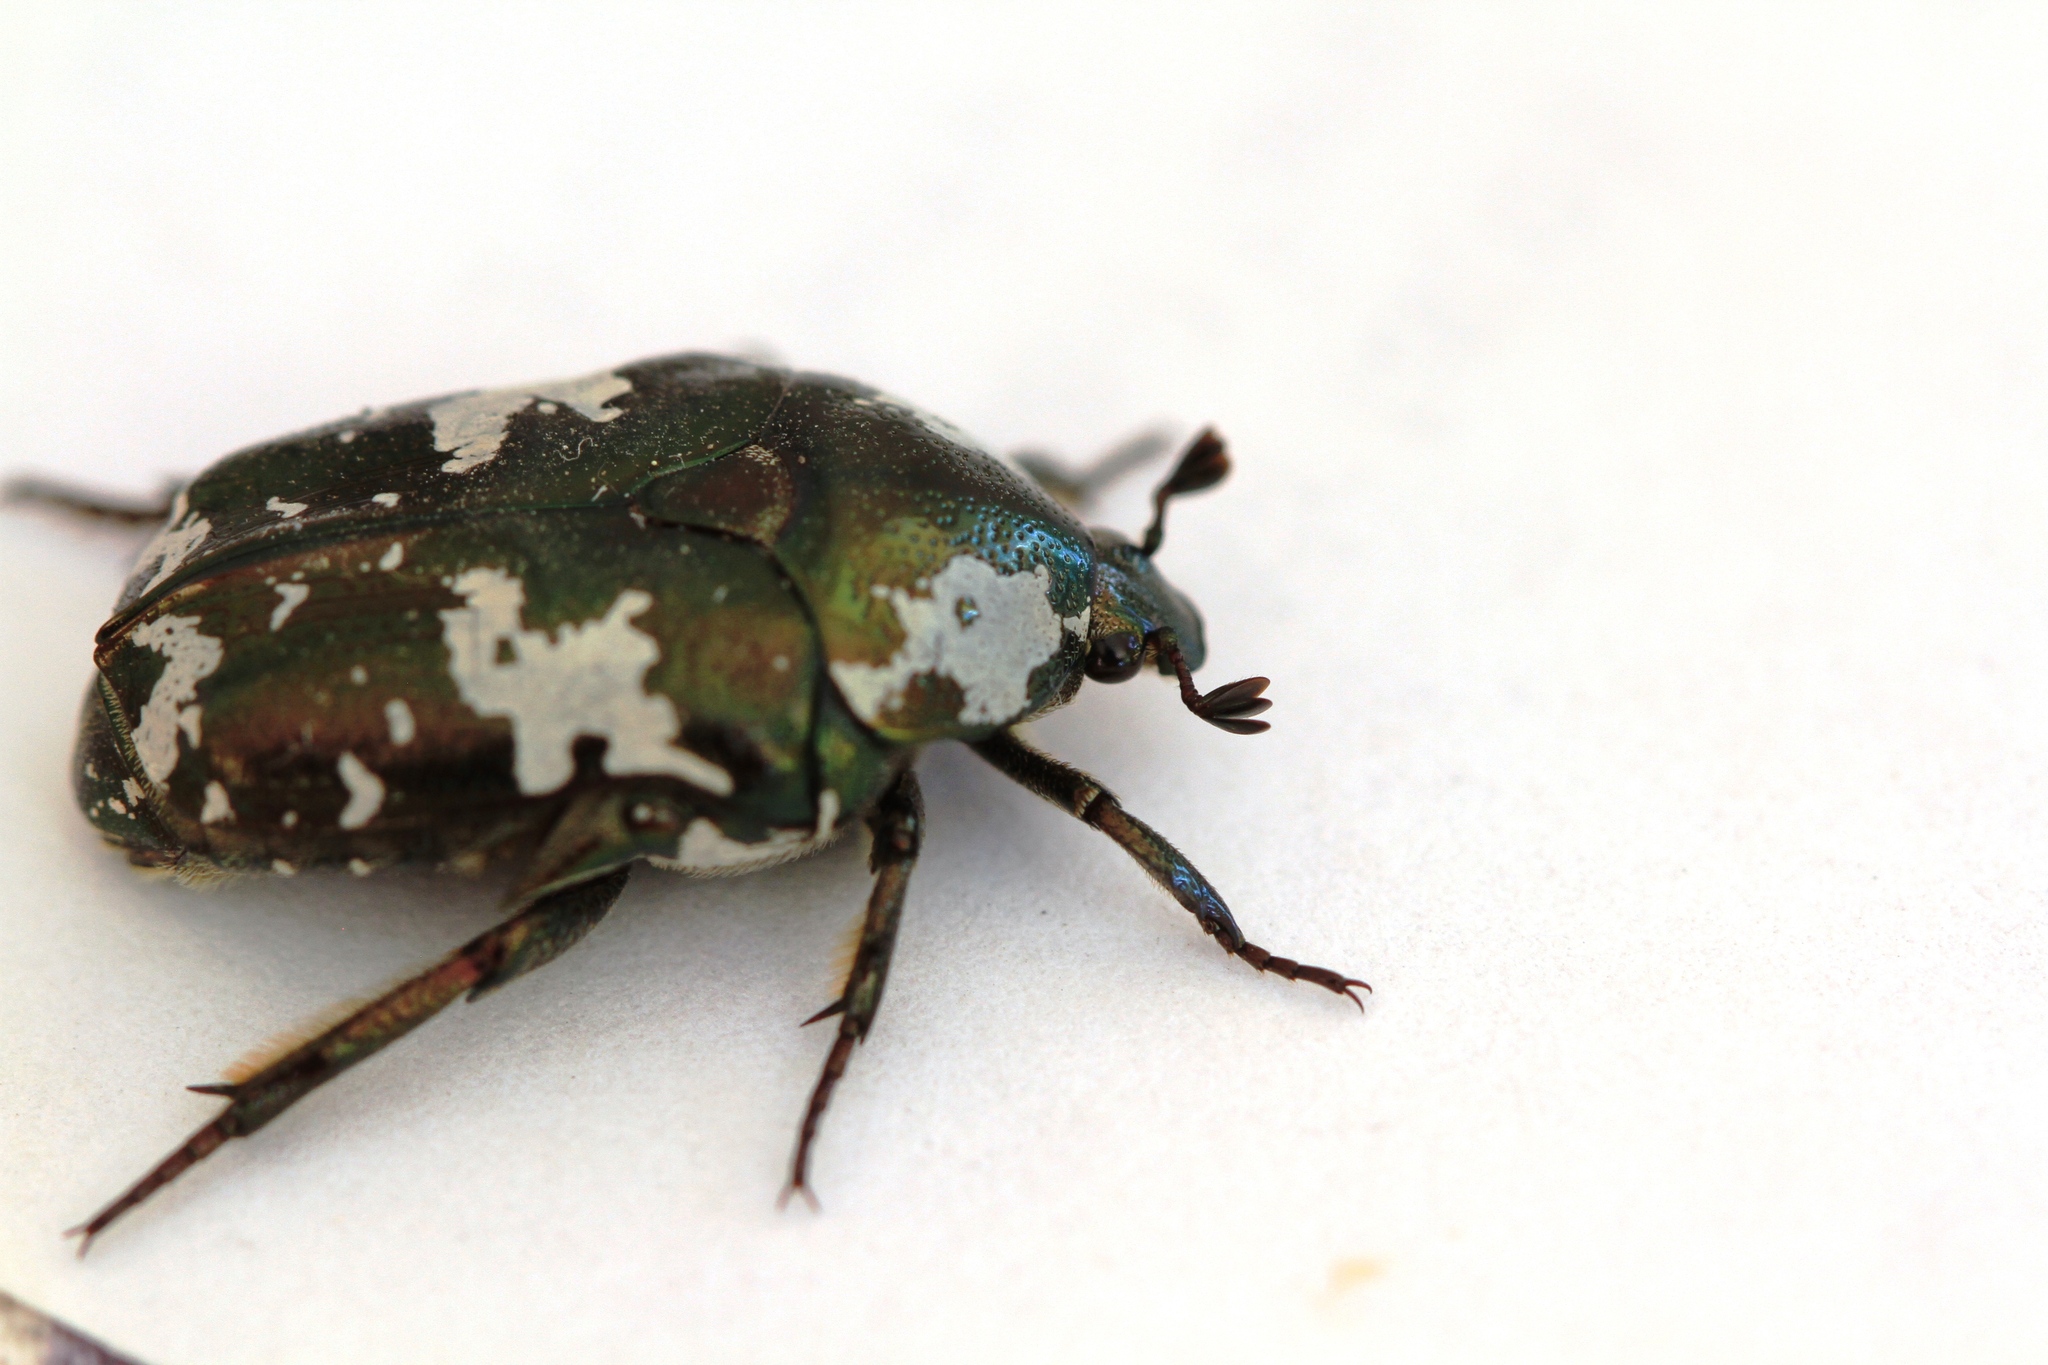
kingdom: Animalia
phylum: Arthropoda
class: Insecta
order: Coleoptera
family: Scarabaeidae
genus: Protaetia
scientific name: Protaetia aurichalcea
